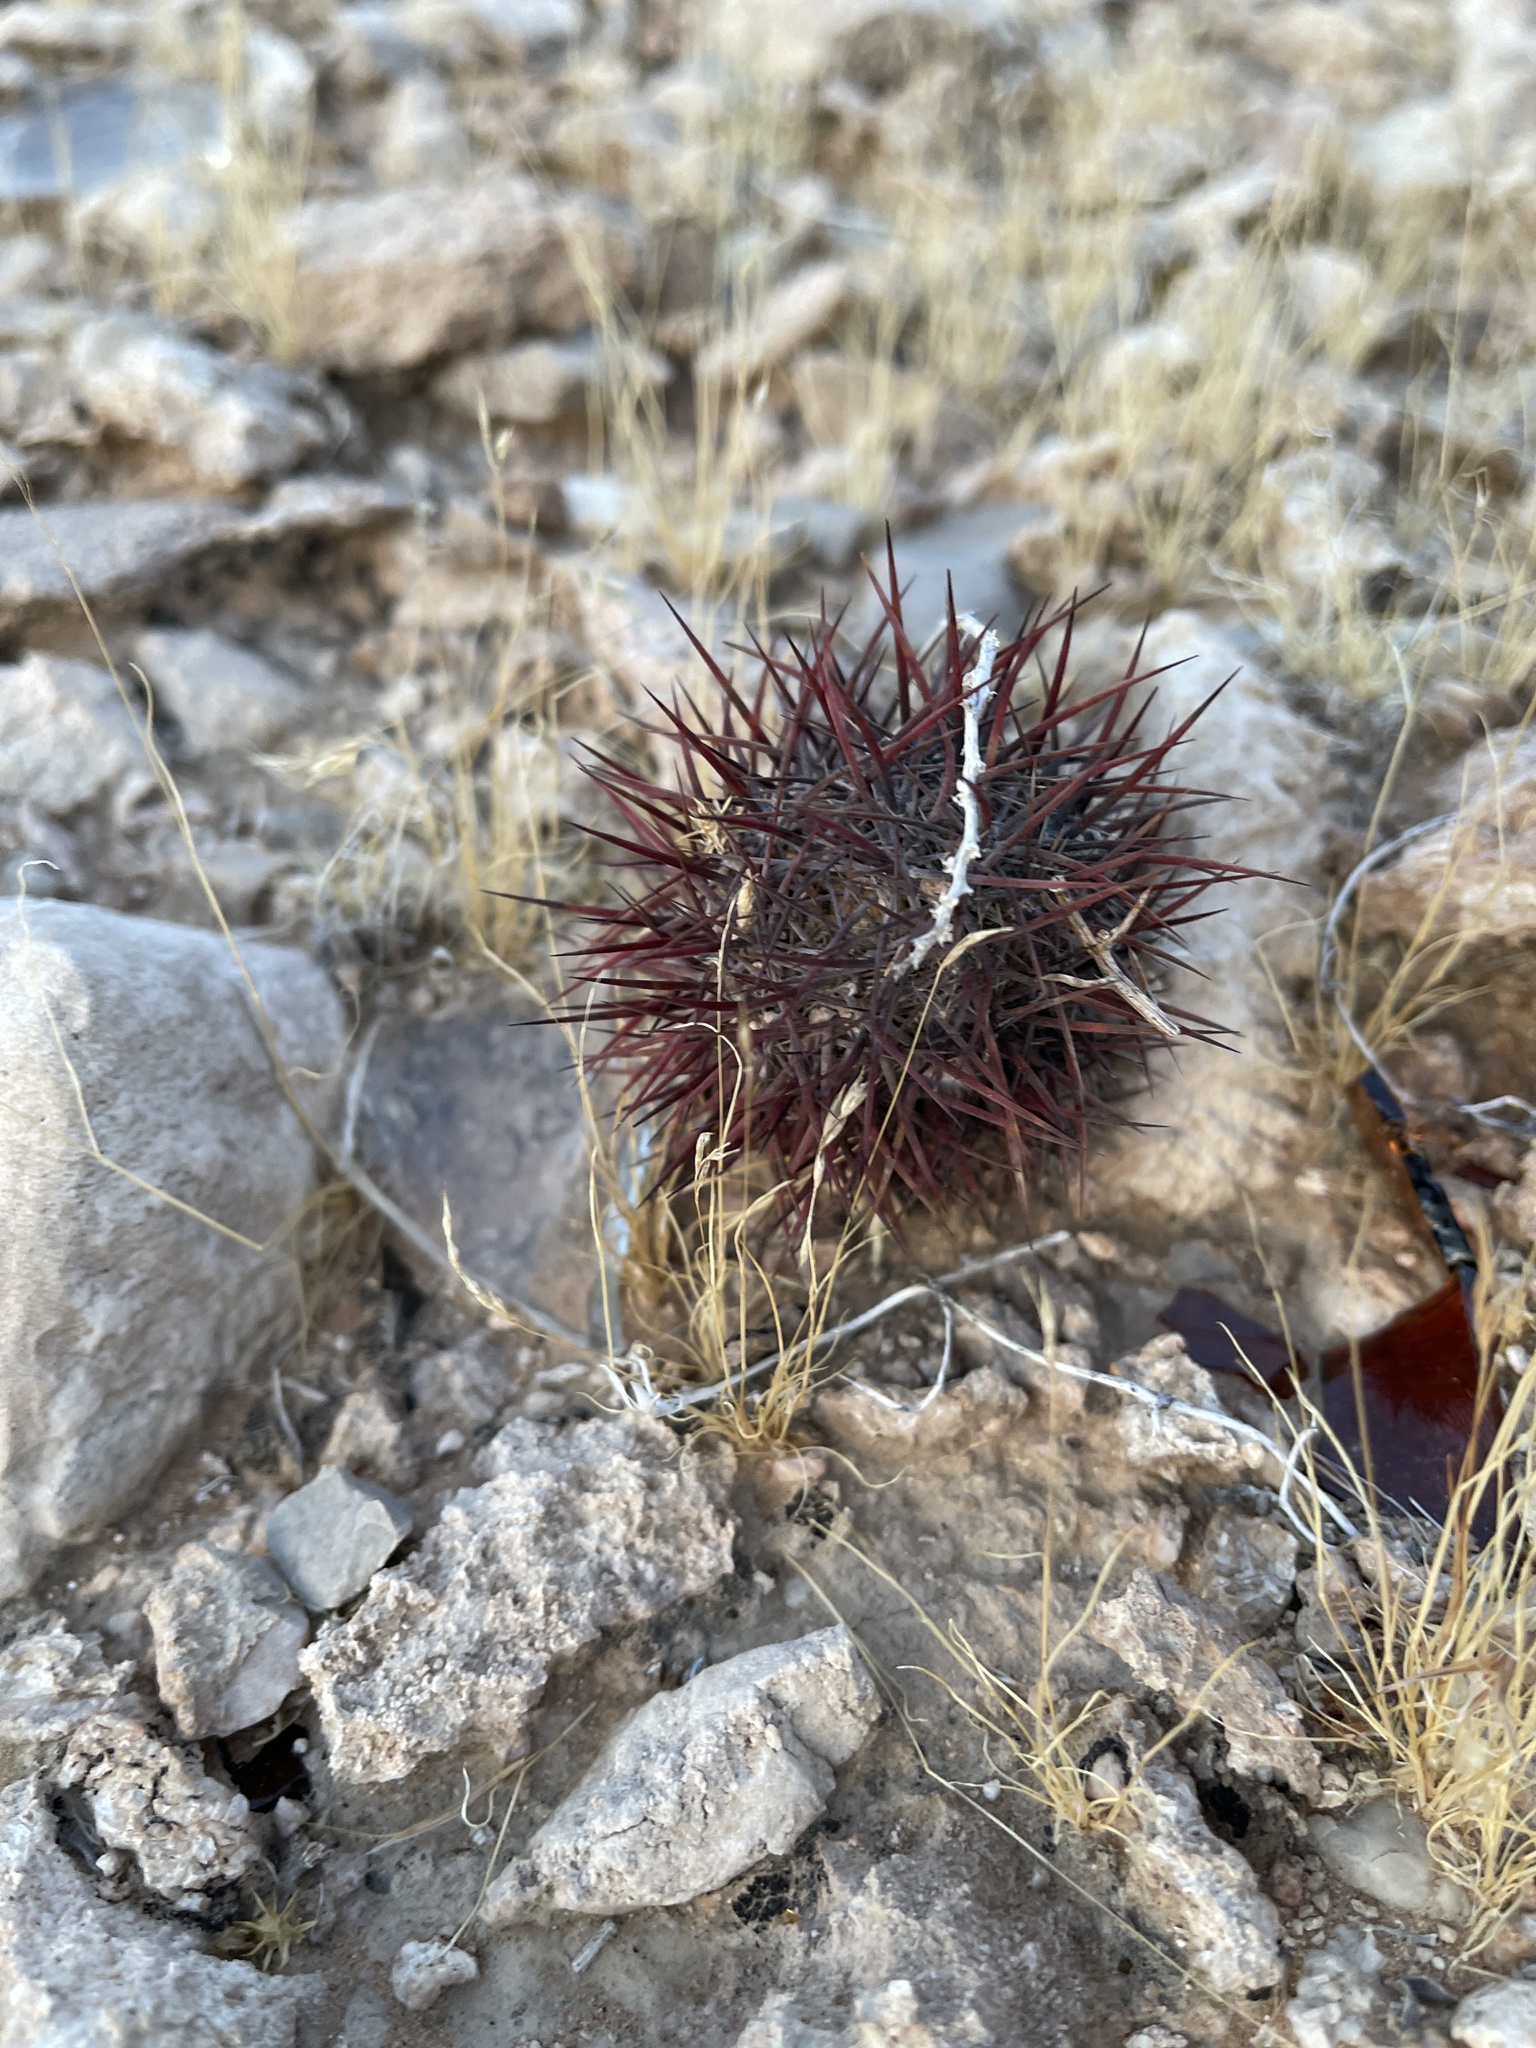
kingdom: Plantae
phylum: Tracheophyta
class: Magnoliopsida
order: Caryophyllales
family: Cactaceae
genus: Sclerocactus
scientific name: Sclerocactus johnsonii
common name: Eight-spine fishhook cactus
